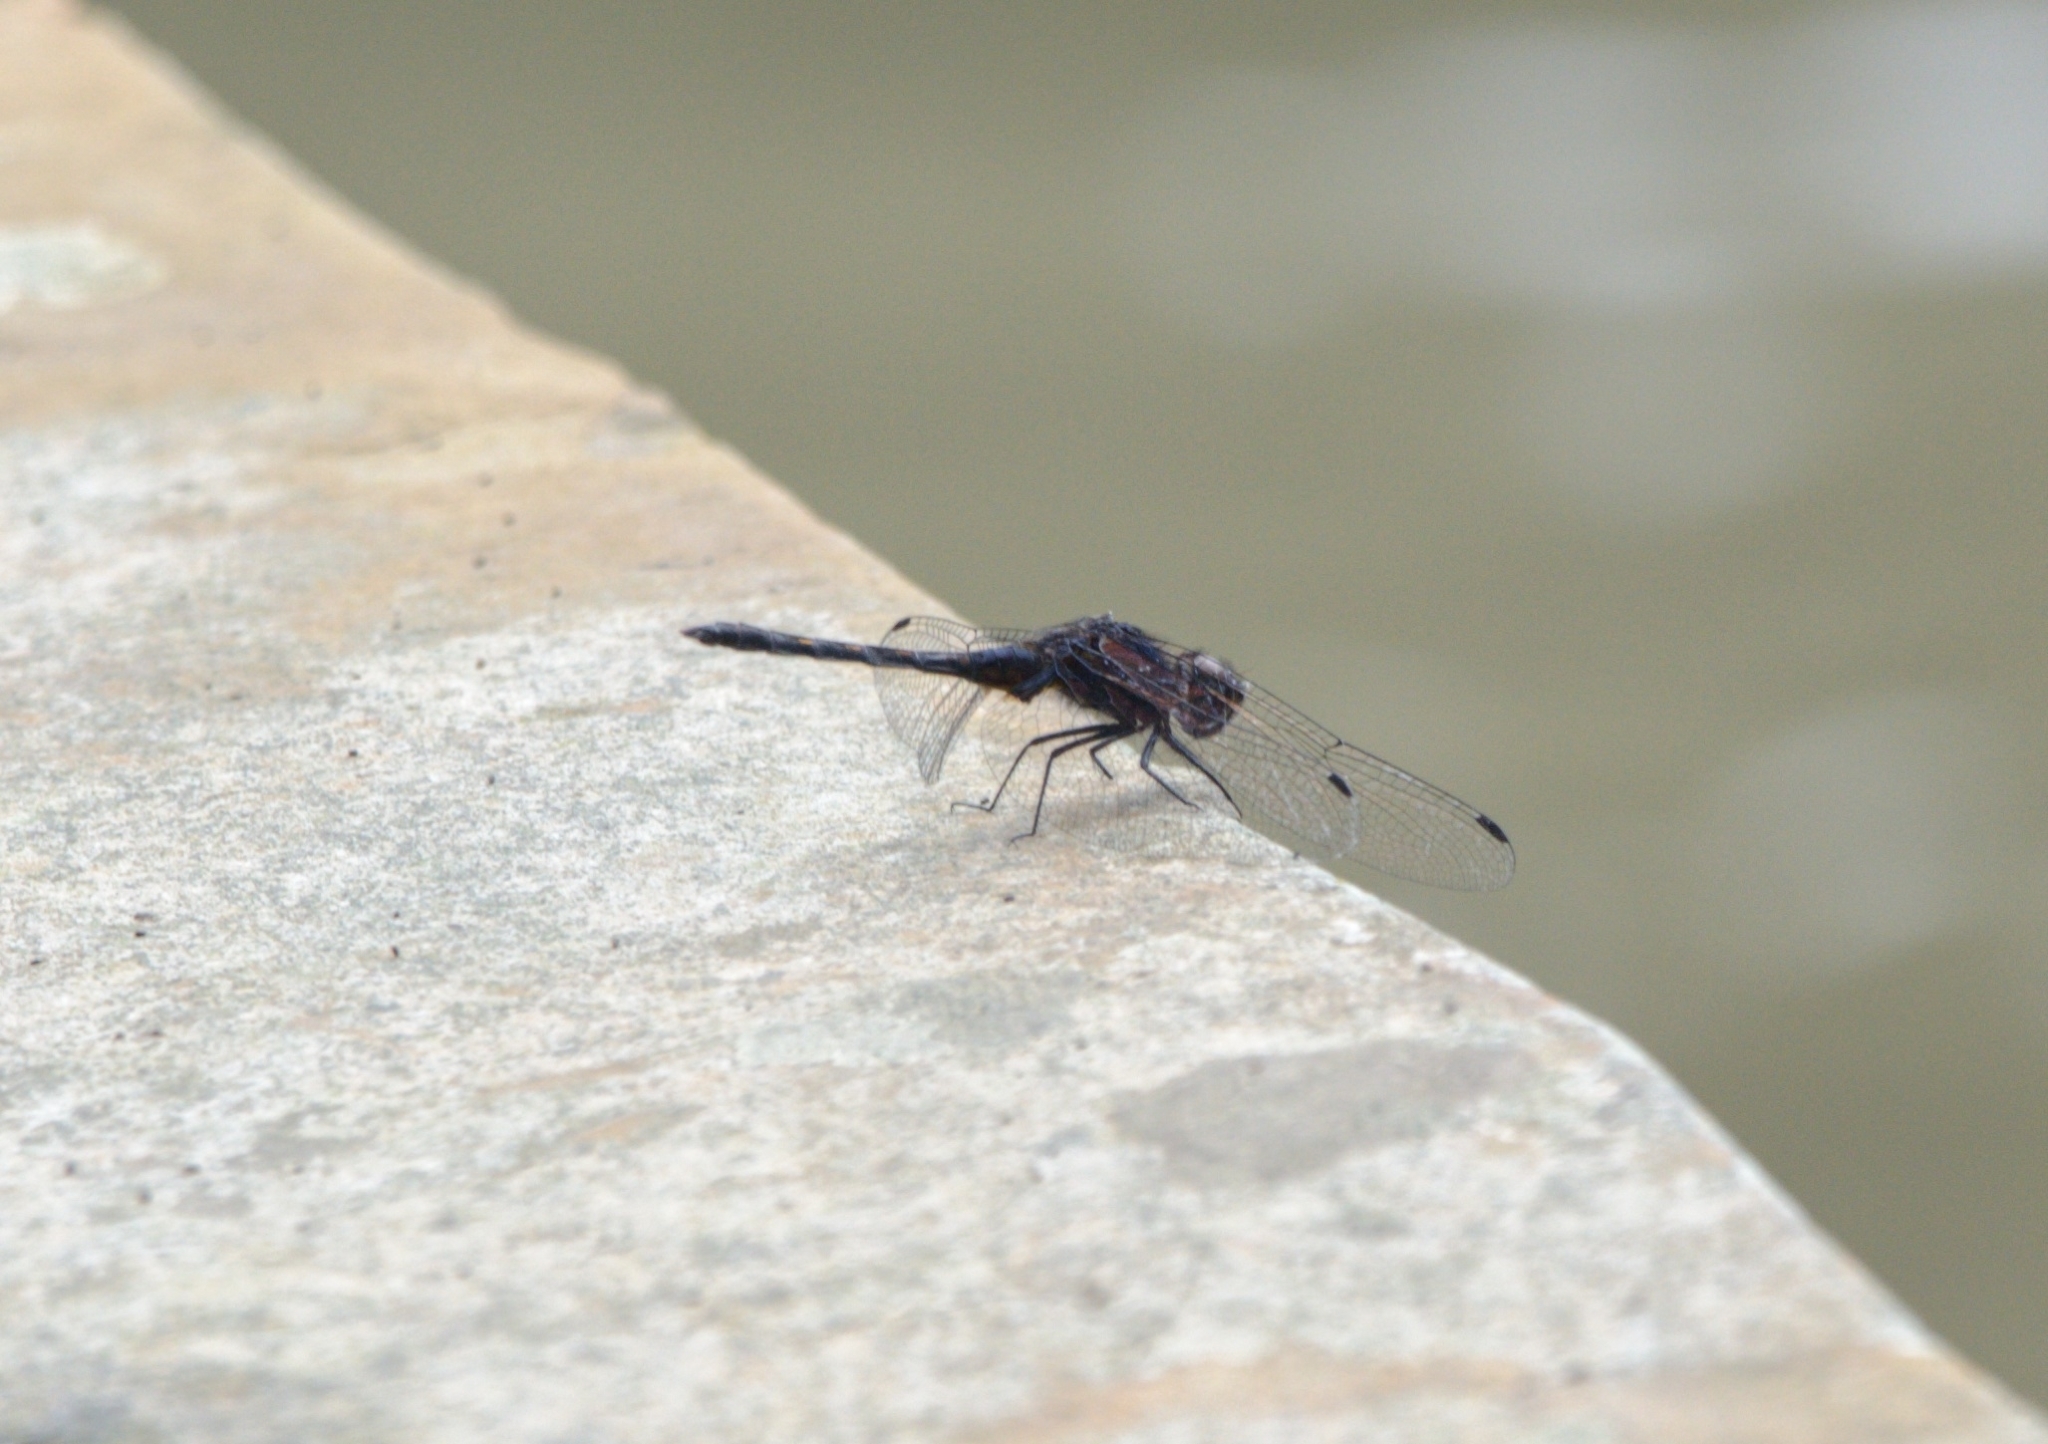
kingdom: Animalia
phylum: Arthropoda
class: Insecta
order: Odonata
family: Libellulidae
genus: Trithemis
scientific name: Trithemis festiva
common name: Indigo dropwing
